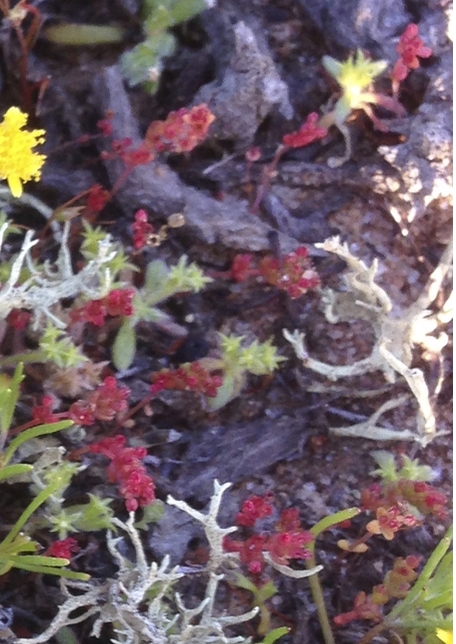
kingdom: Plantae
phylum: Tracheophyta
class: Magnoliopsida
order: Saxifragales
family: Crassulaceae
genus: Crassula
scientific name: Crassula connata
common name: Erect pygmyweed
